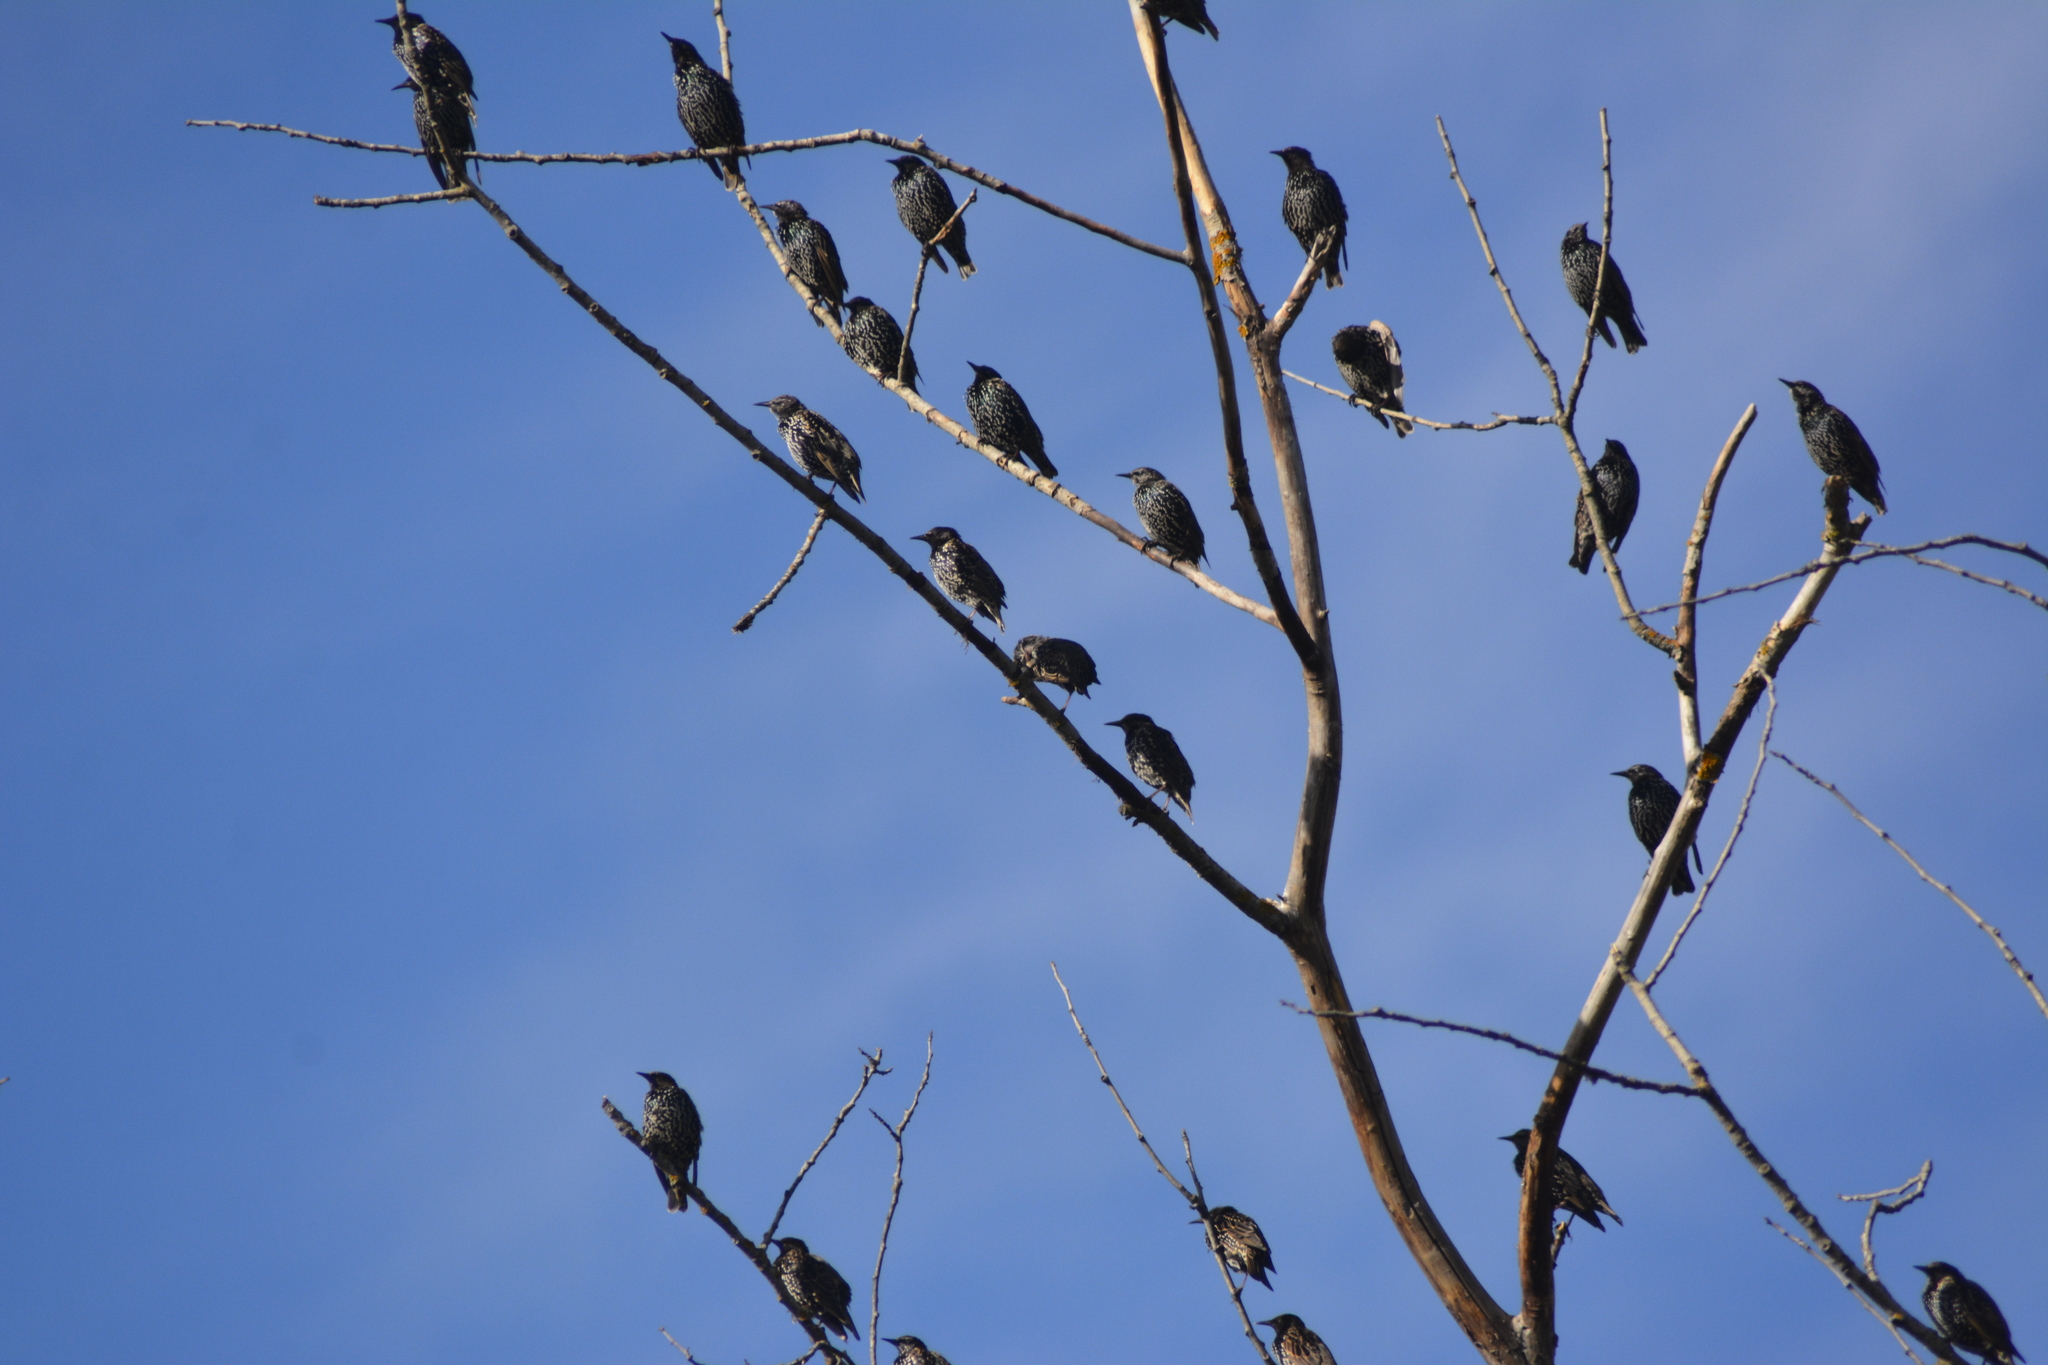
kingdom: Animalia
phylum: Chordata
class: Aves
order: Passeriformes
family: Sturnidae
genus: Sturnus
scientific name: Sturnus vulgaris
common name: Common starling
